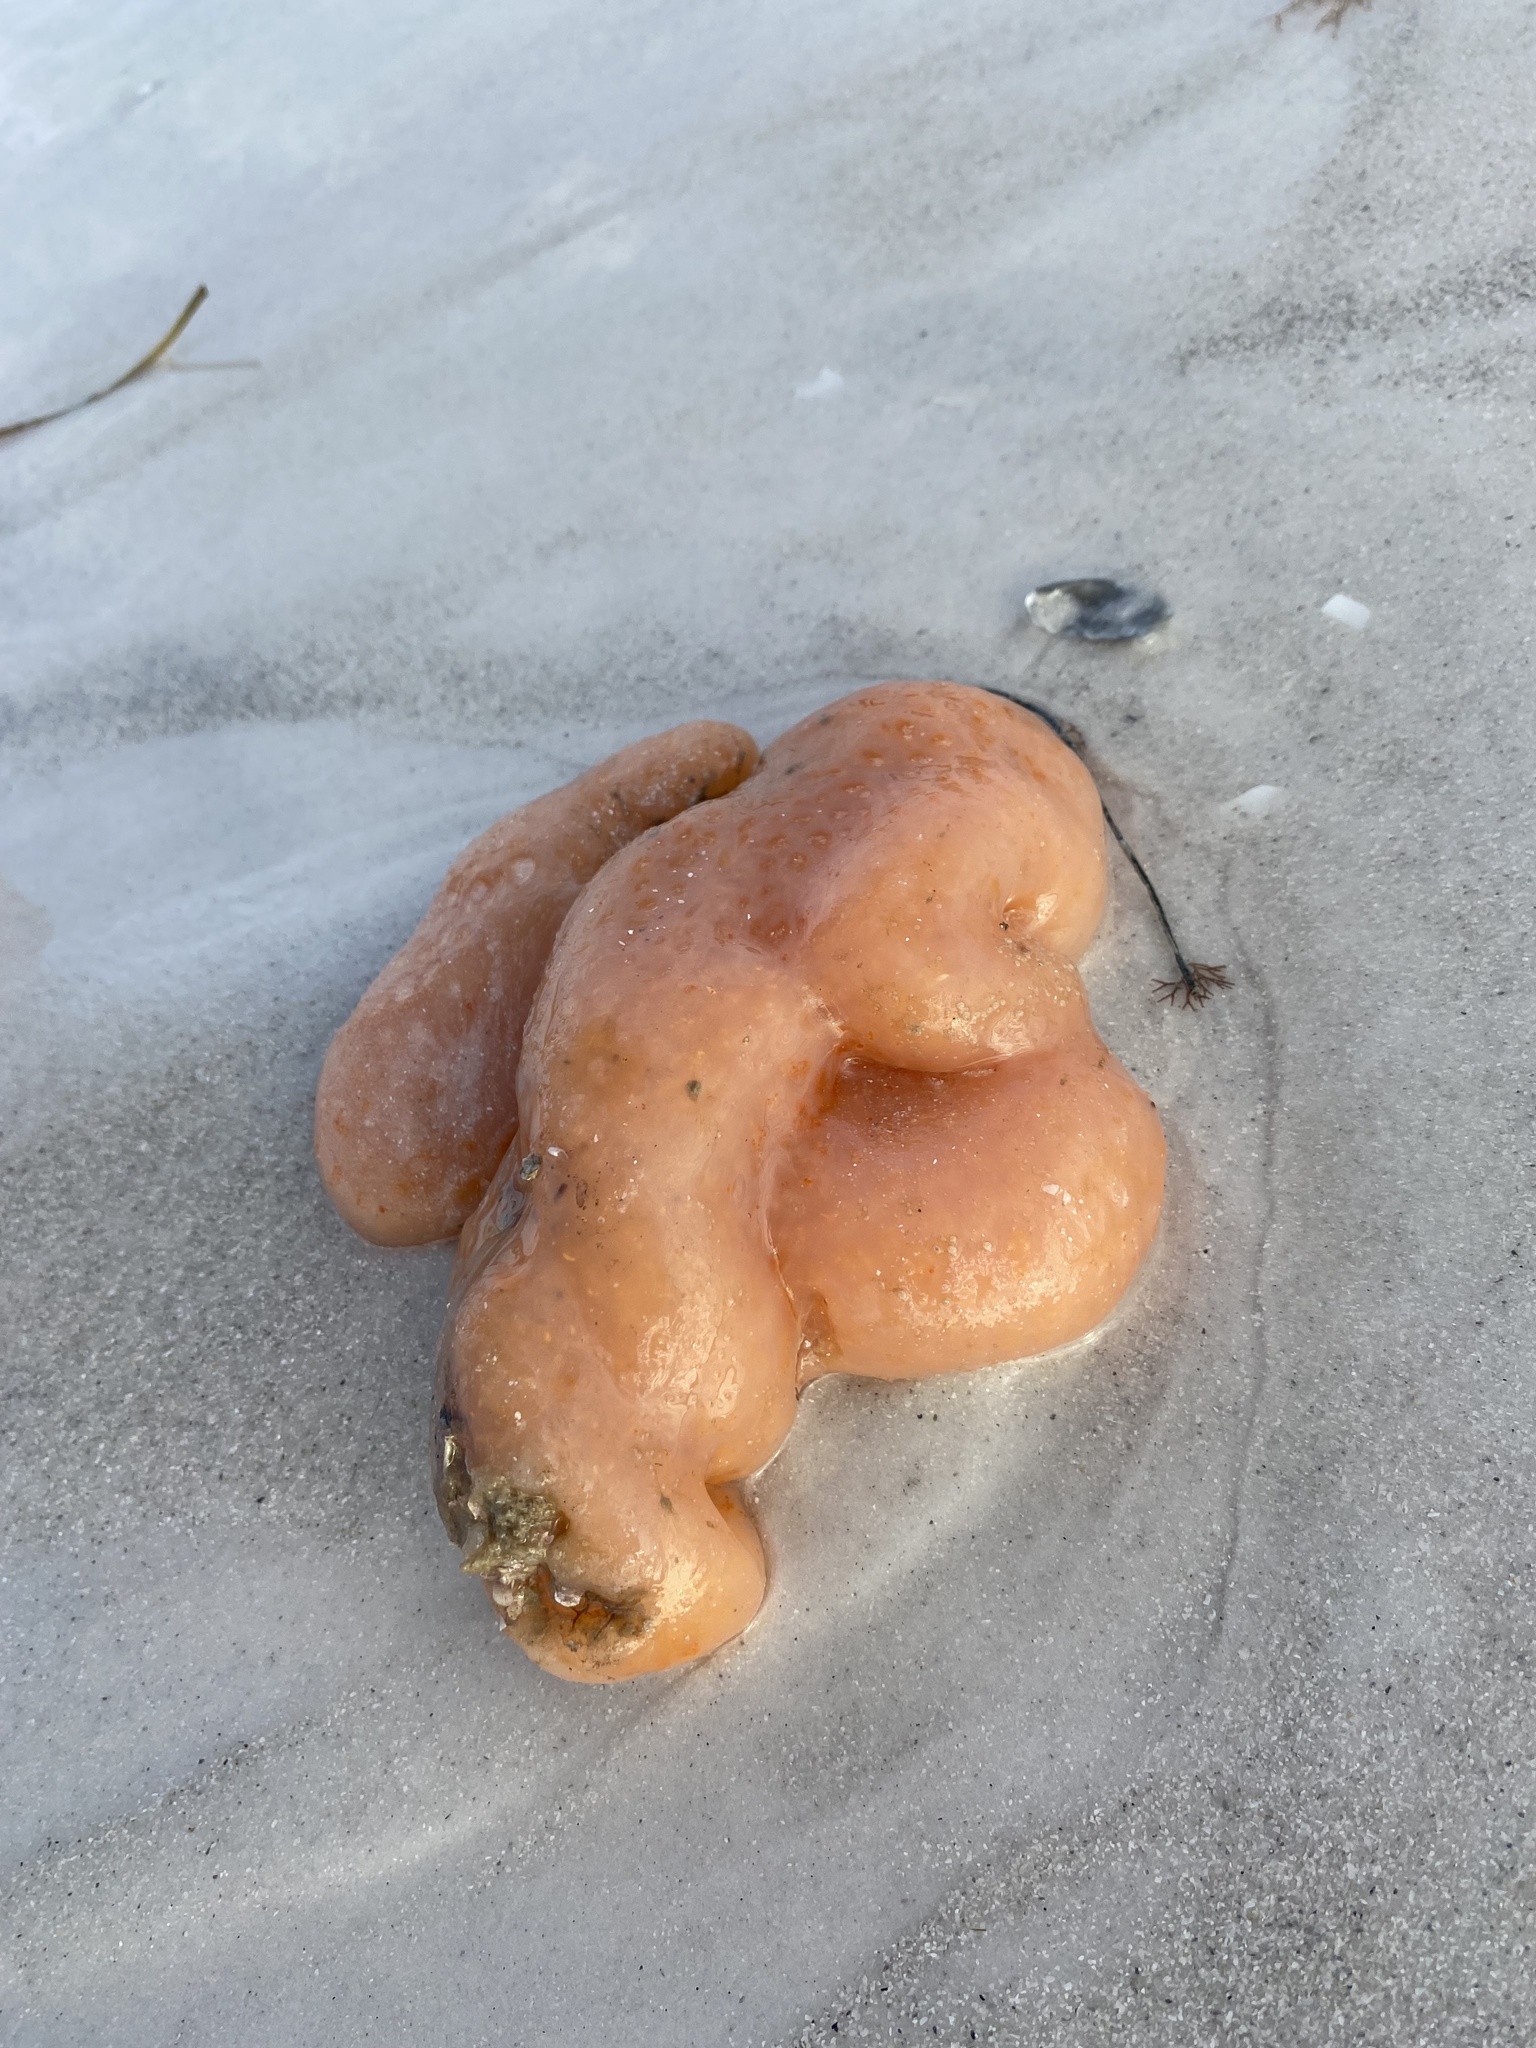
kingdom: Animalia
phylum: Chordata
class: Ascidiacea
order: Aplousobranchia
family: Polyclinidae
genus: Aplidium
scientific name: Aplidium stellatum
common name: Atlantic sea pork
